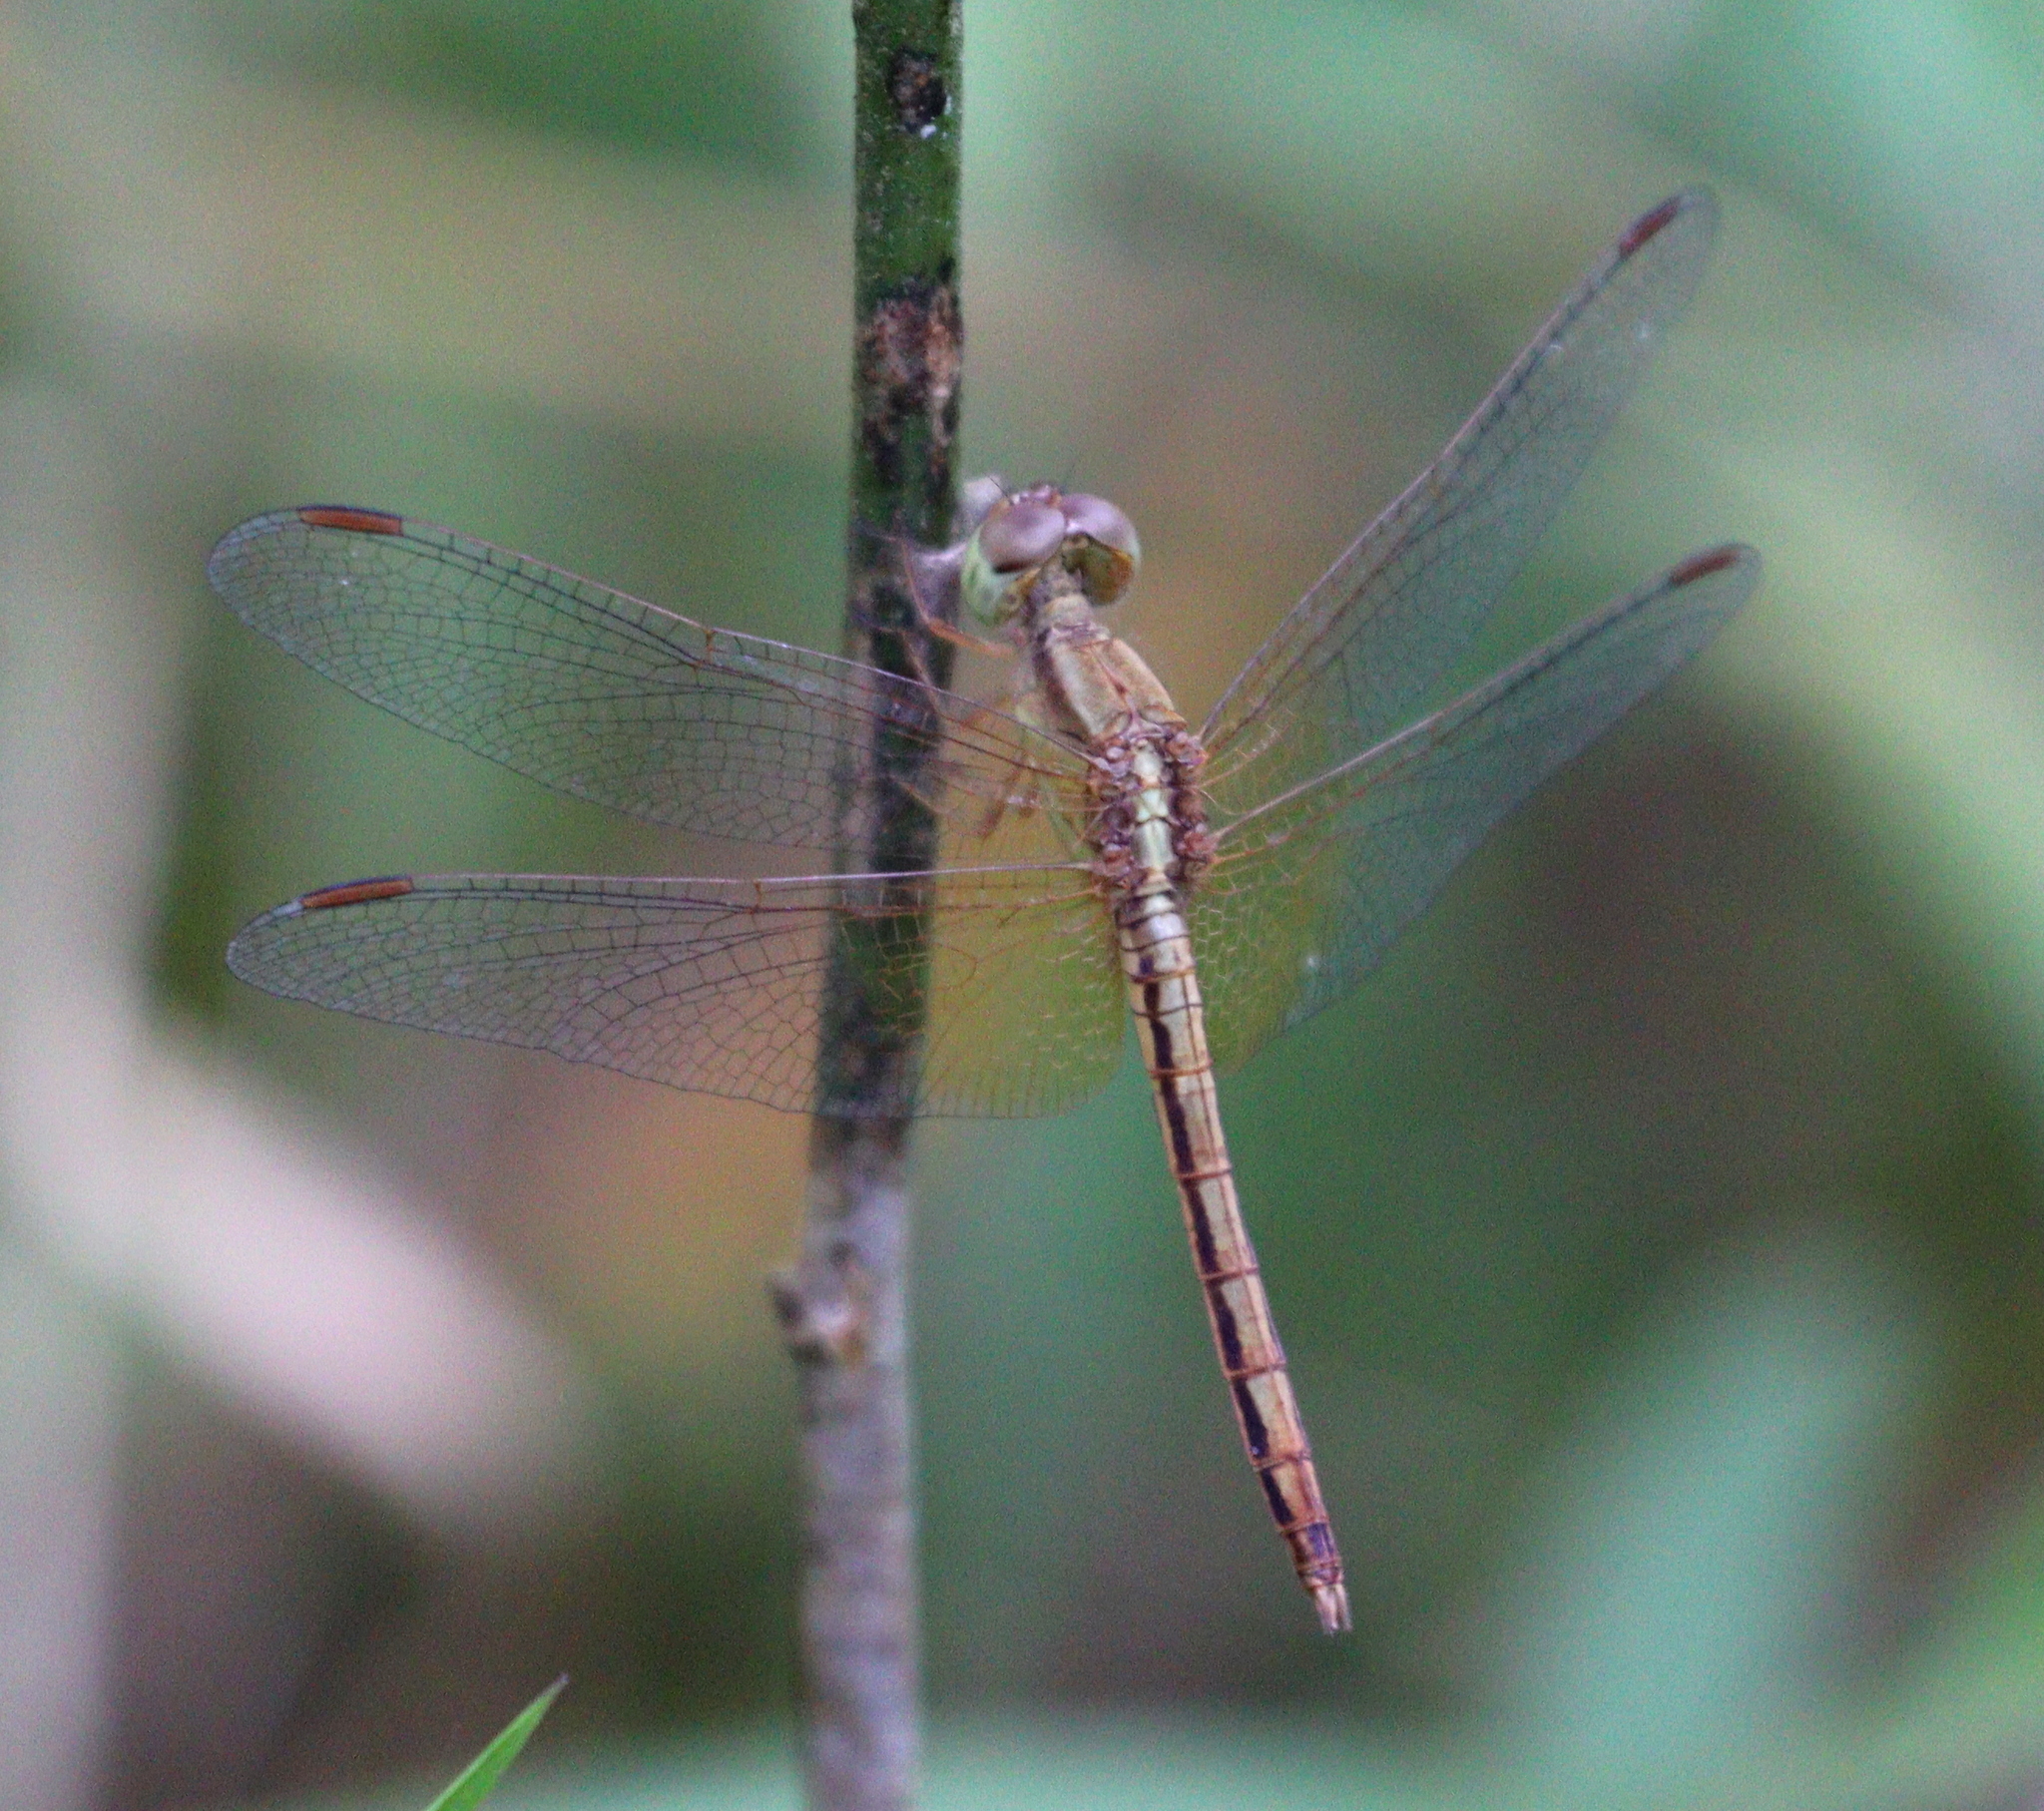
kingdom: Animalia
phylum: Arthropoda
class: Insecta
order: Odonata
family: Libellulidae
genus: Neurothemis
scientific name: Neurothemis intermedia
